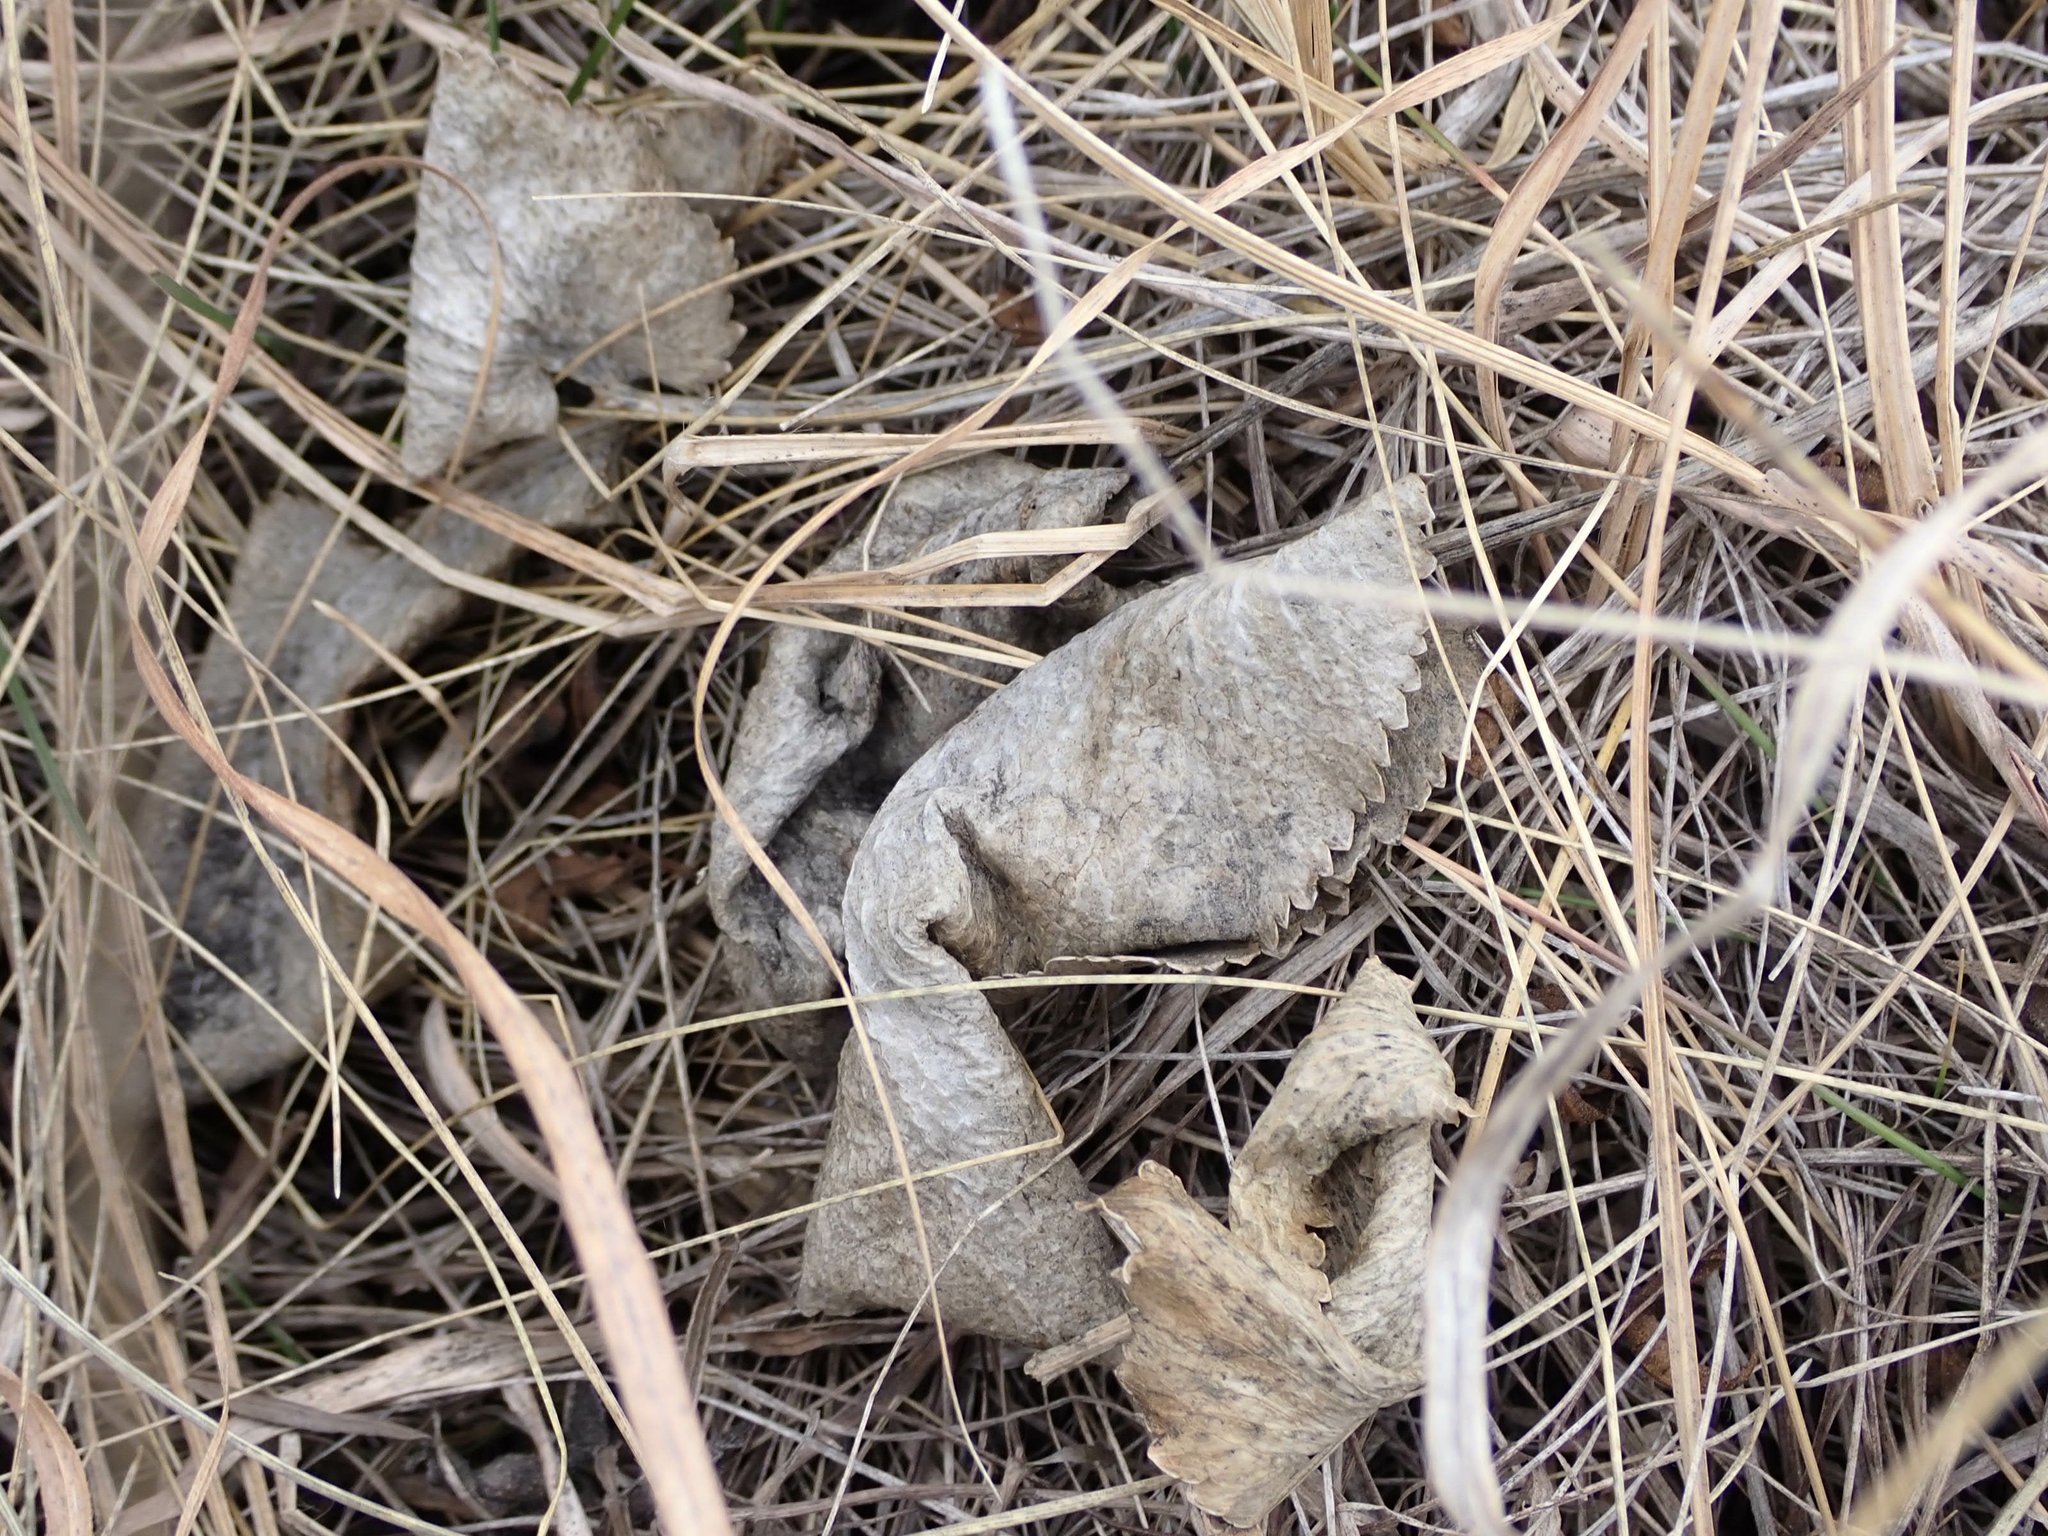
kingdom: Plantae
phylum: Tracheophyta
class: Magnoliopsida
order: Apiales
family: Apiaceae
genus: Zizia
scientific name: Zizia aptera
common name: Heart-leaved alexanders
